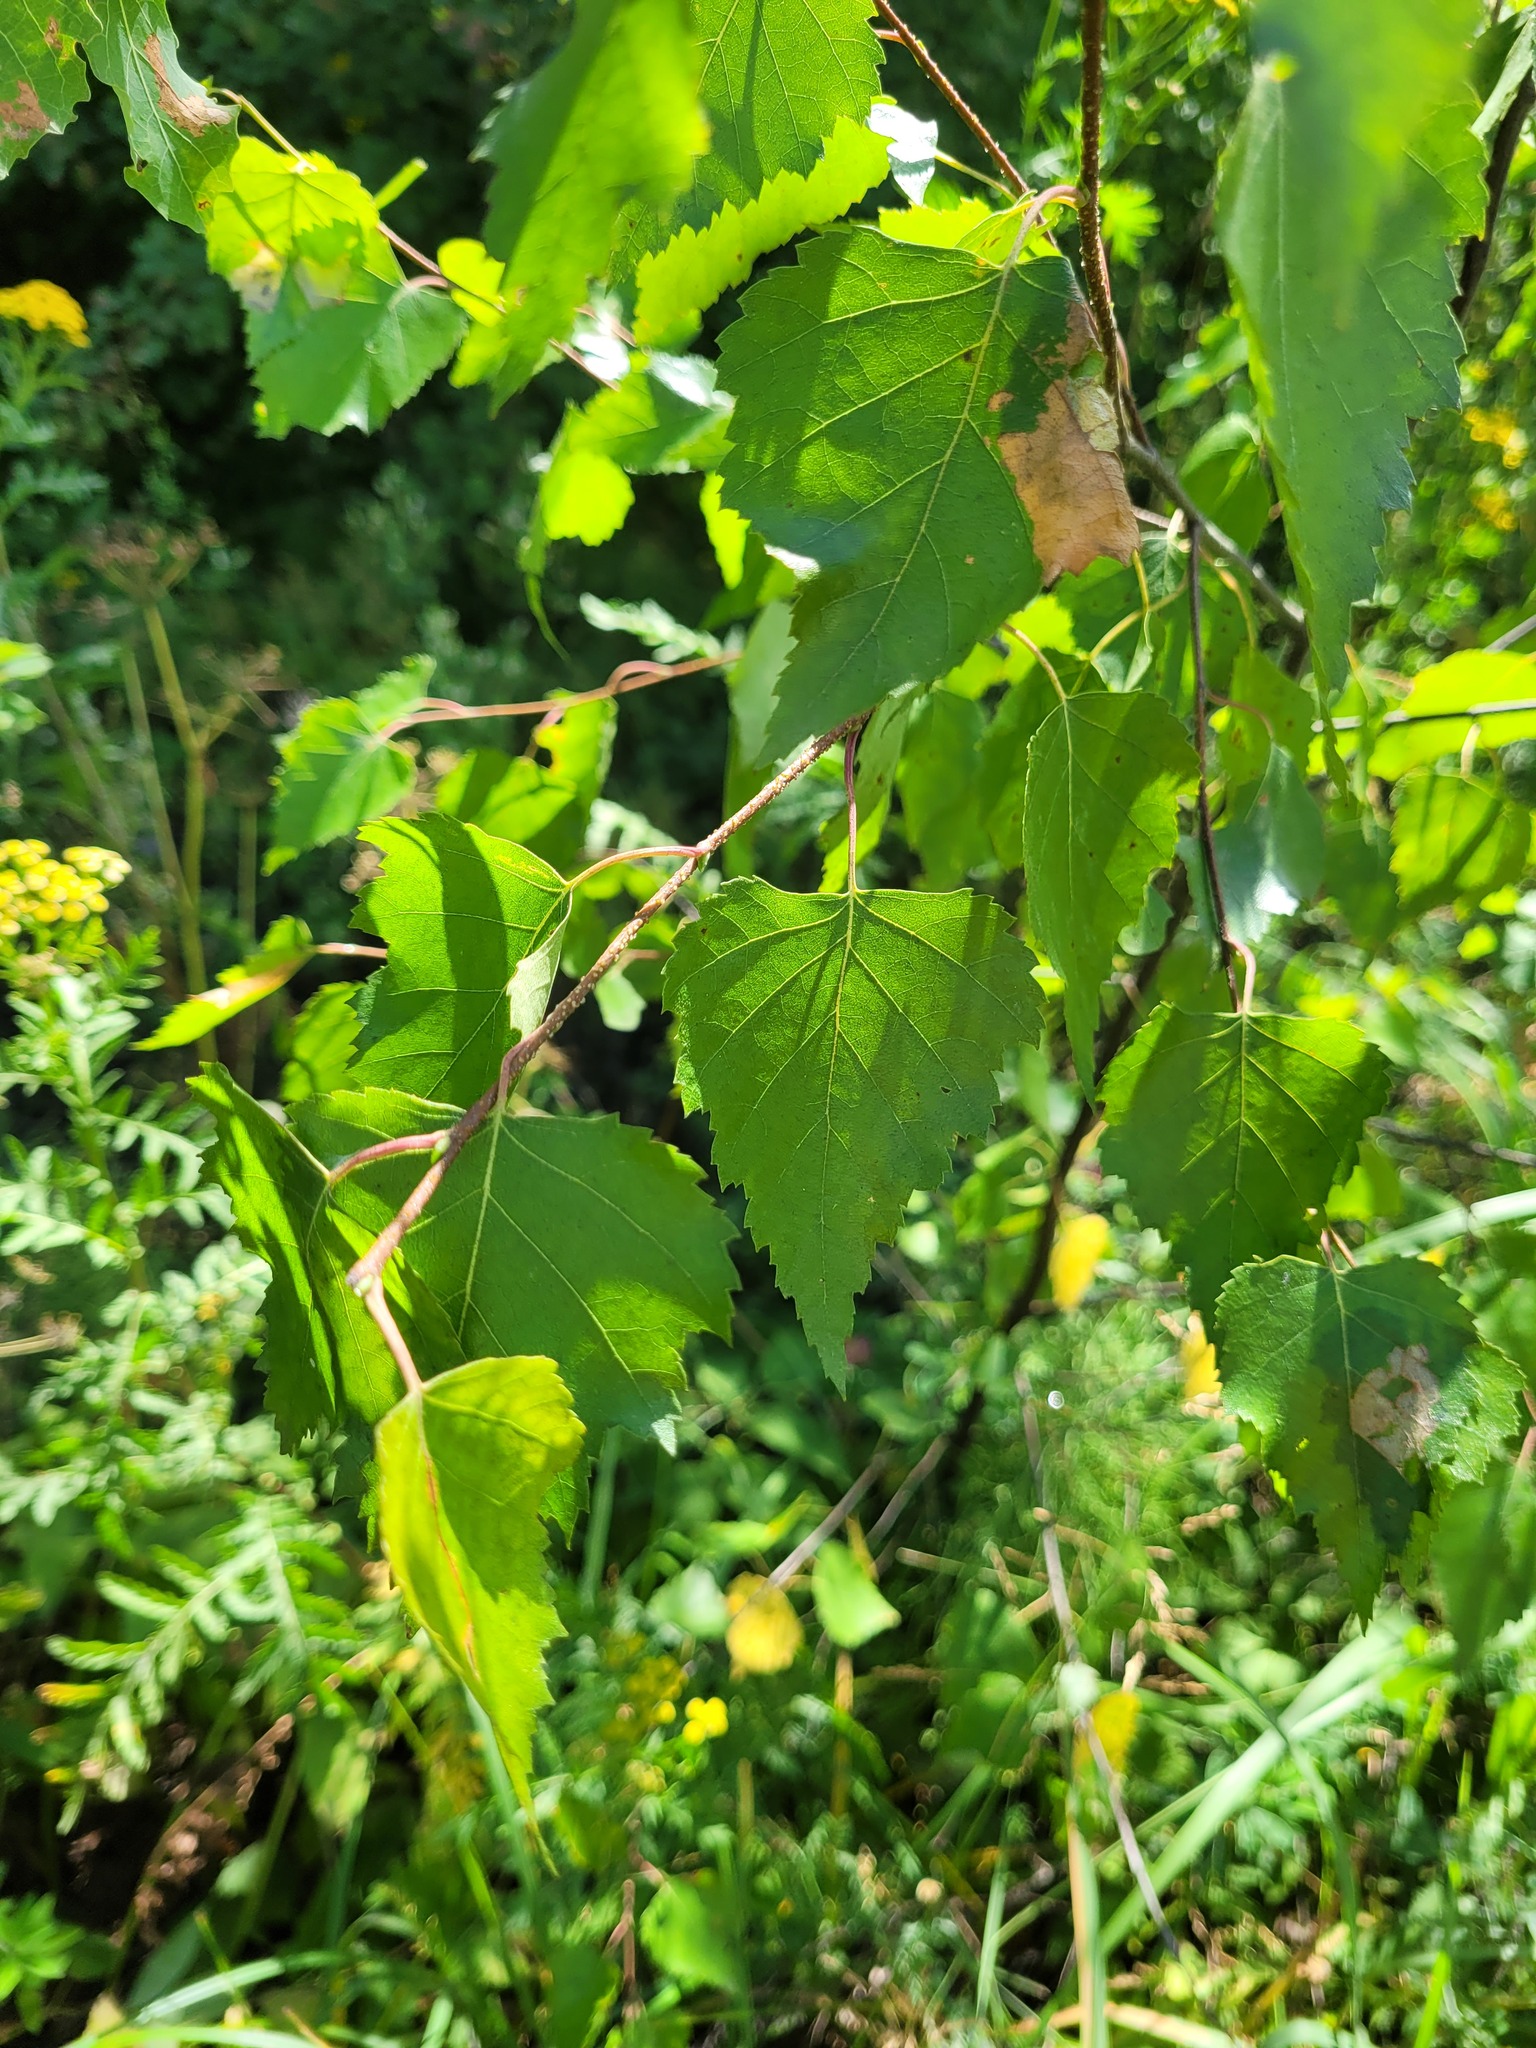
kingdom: Plantae
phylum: Tracheophyta
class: Magnoliopsida
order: Fagales
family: Betulaceae
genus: Betula
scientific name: Betula pendula
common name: Silver birch
